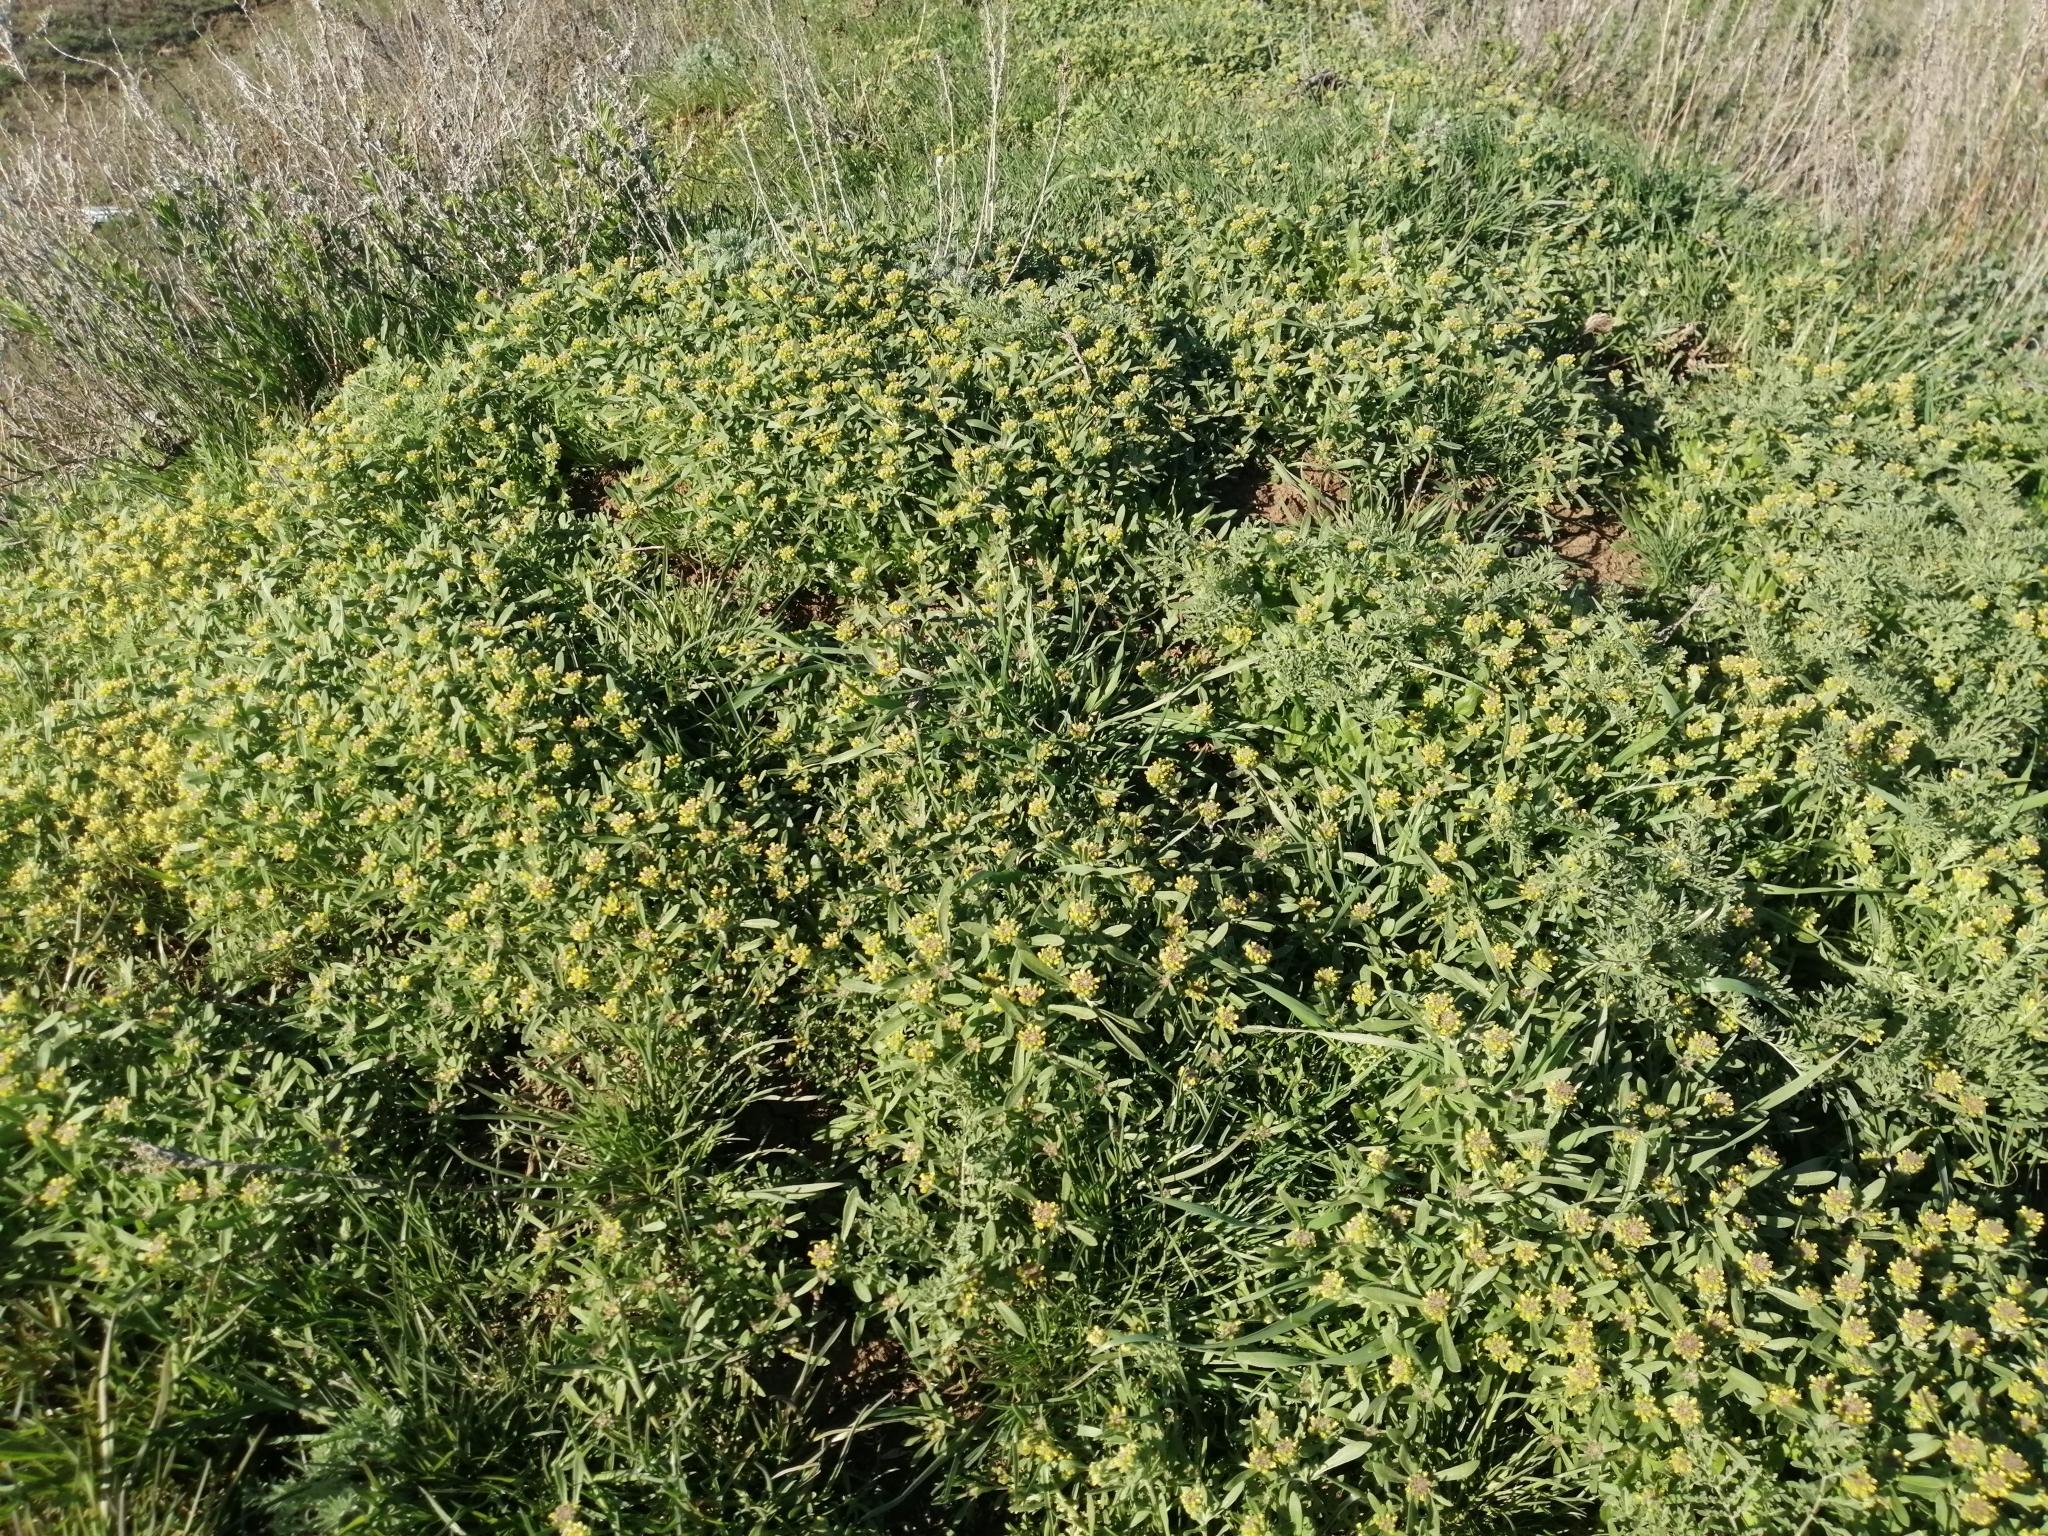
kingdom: Plantae
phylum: Tracheophyta
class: Magnoliopsida
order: Brassicales
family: Brassicaceae
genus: Alyssum
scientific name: Alyssum turkestanicum
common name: Desert alyssum
